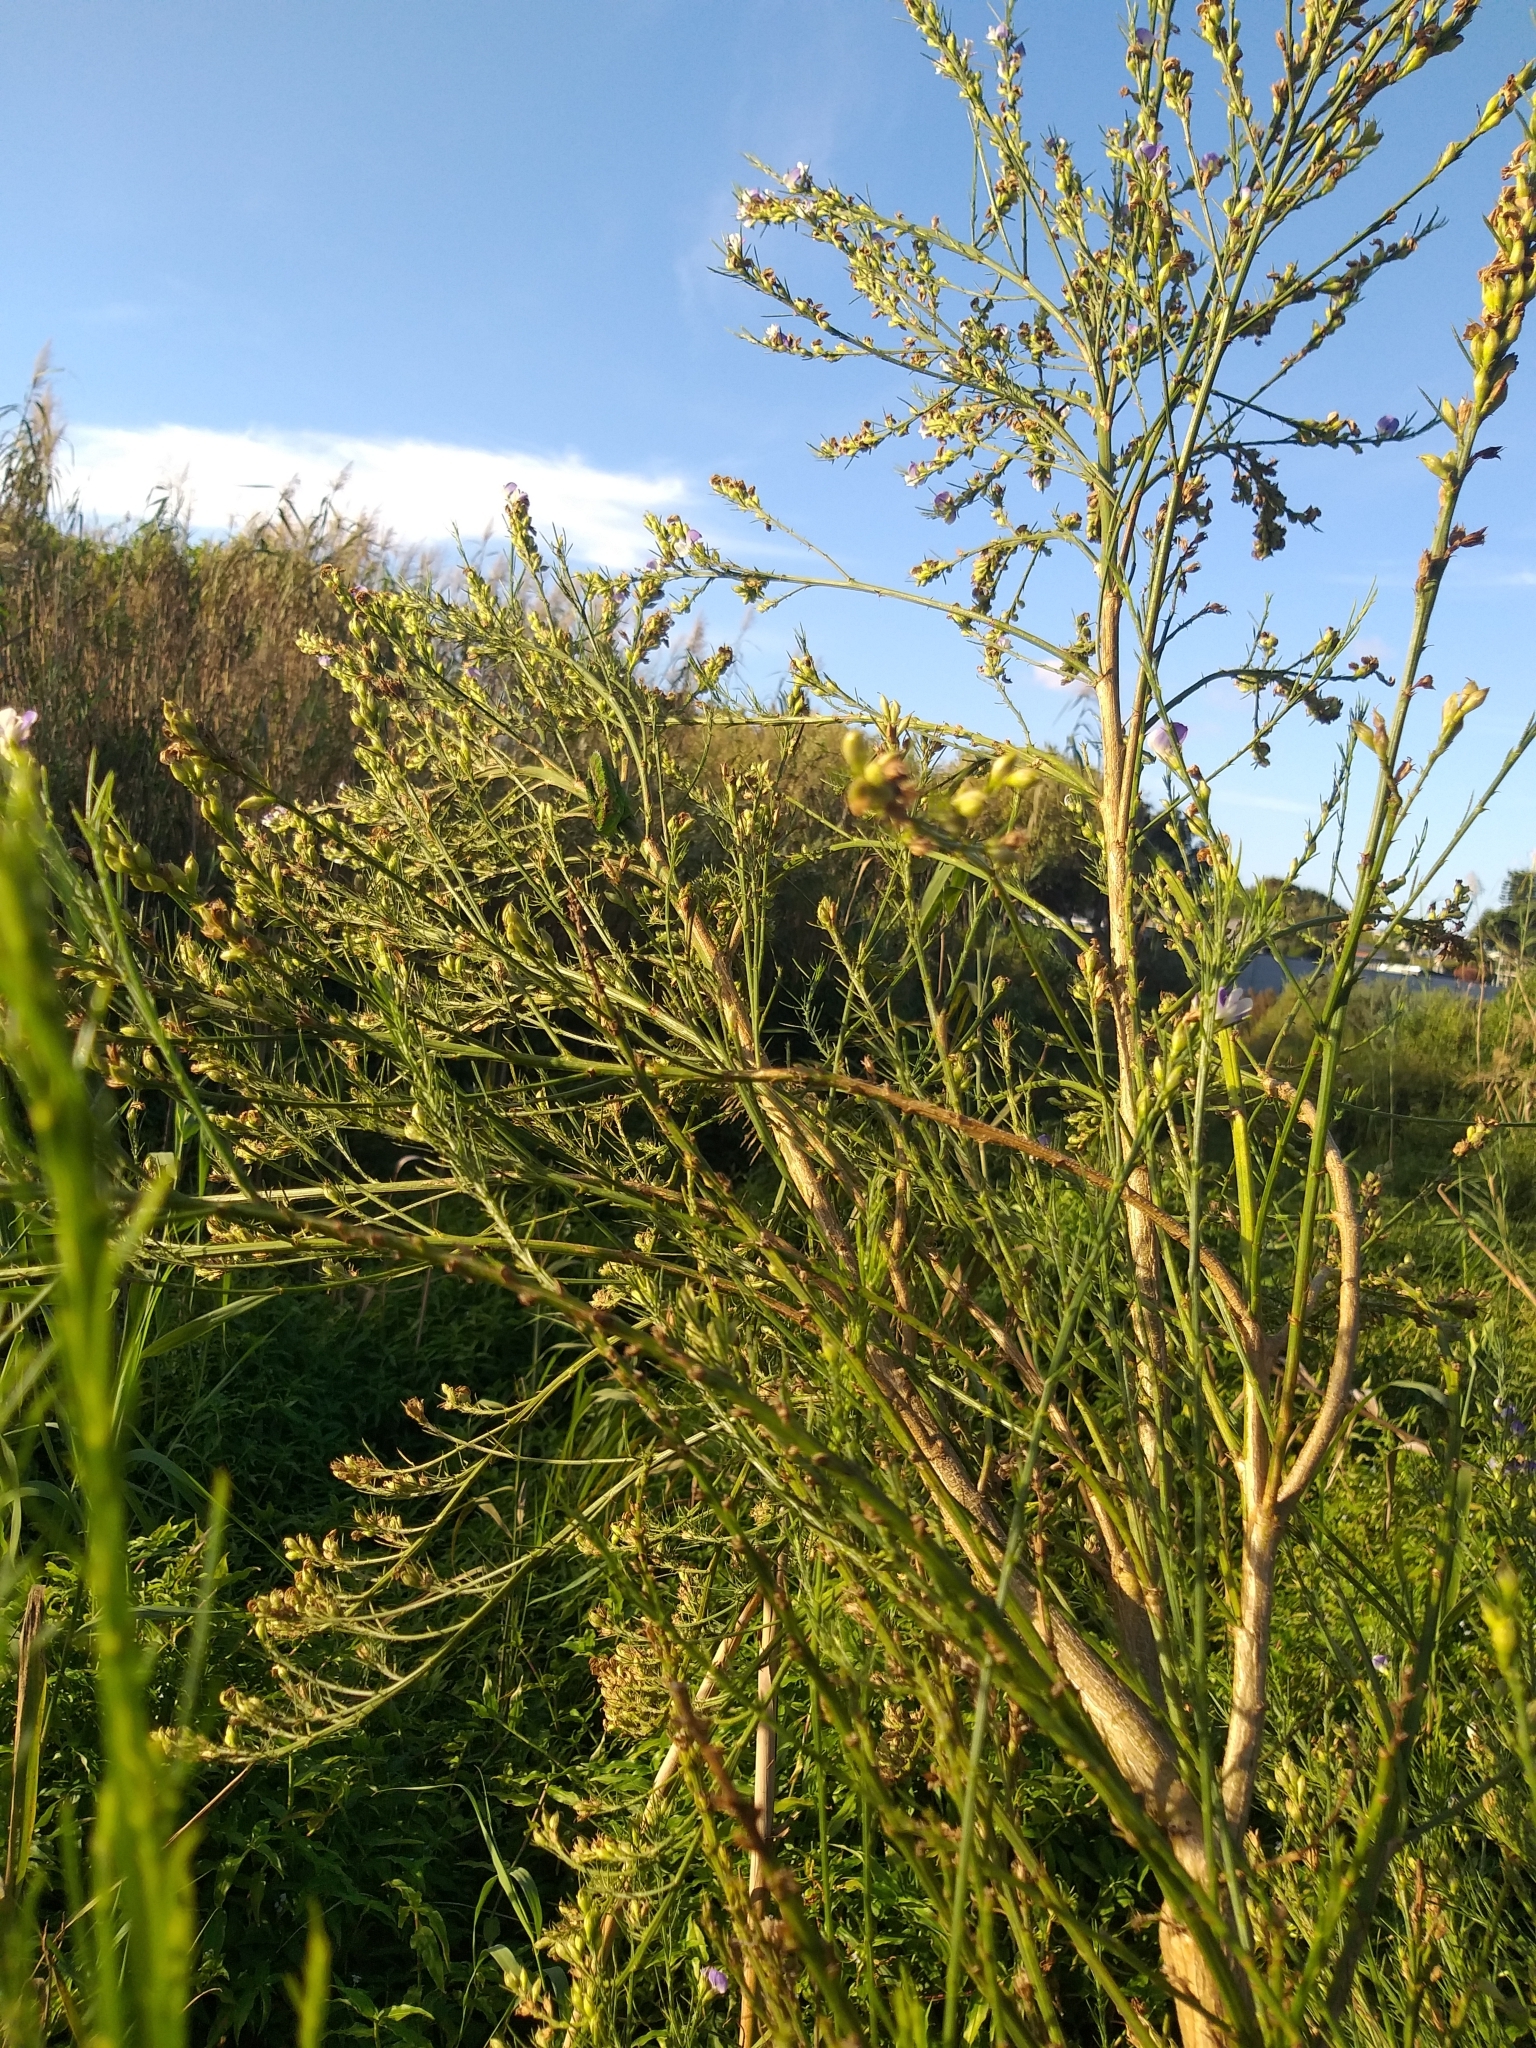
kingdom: Animalia
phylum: Chordata
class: Squamata
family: Chamaeleonidae
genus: Bradypodion
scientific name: Bradypodion pumilum
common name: Cape dwarf chameleon
